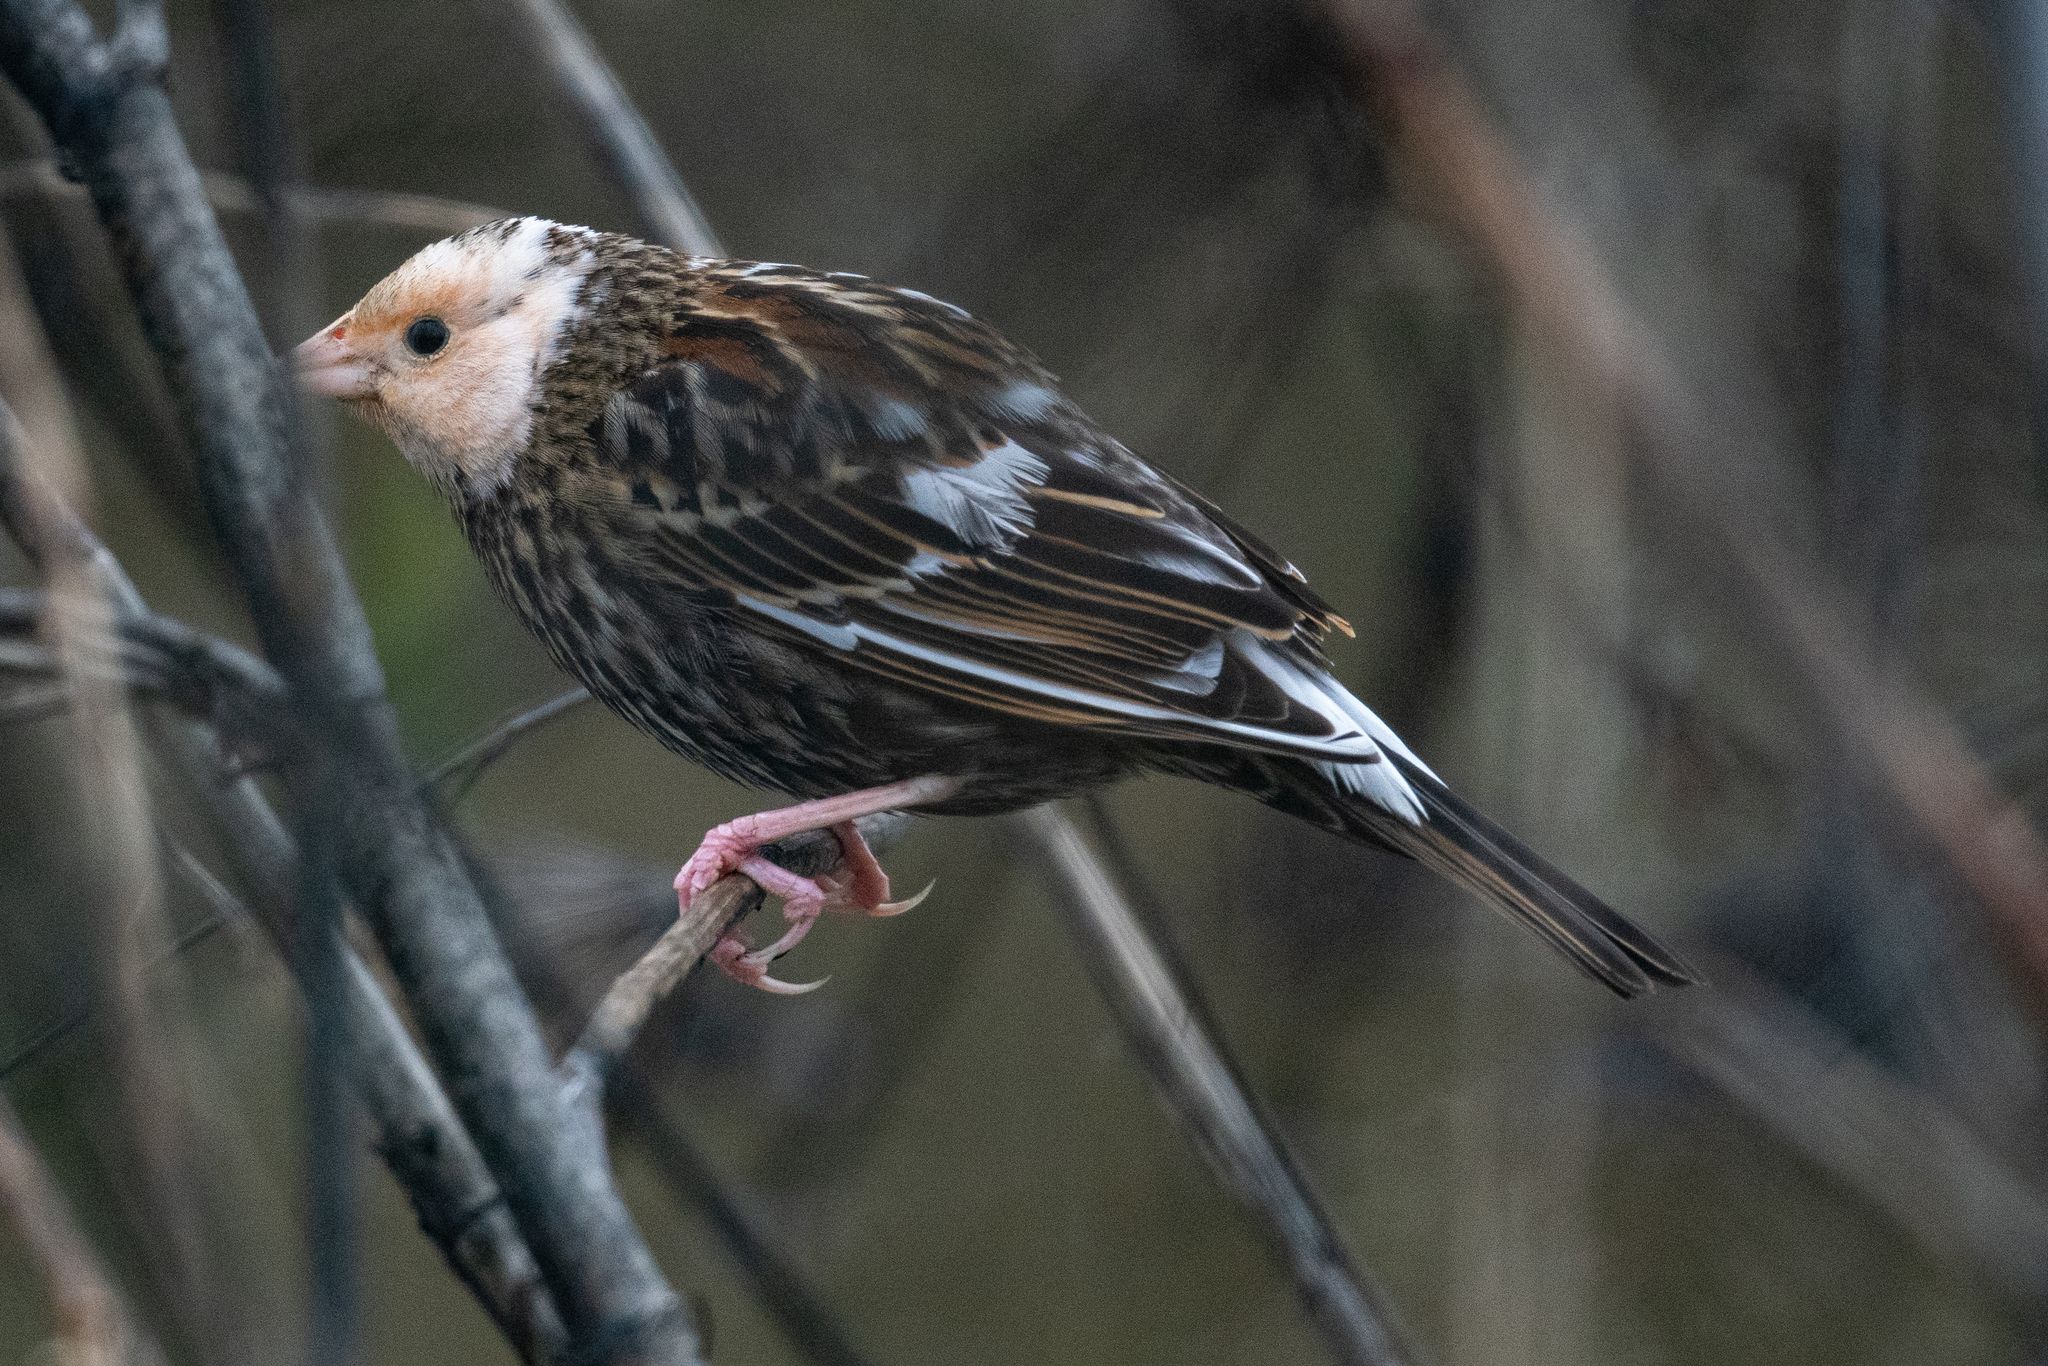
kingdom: Animalia
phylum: Chordata
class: Aves
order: Passeriformes
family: Icteridae
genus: Agelaius
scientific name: Agelaius phoeniceus
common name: Red-winged blackbird
